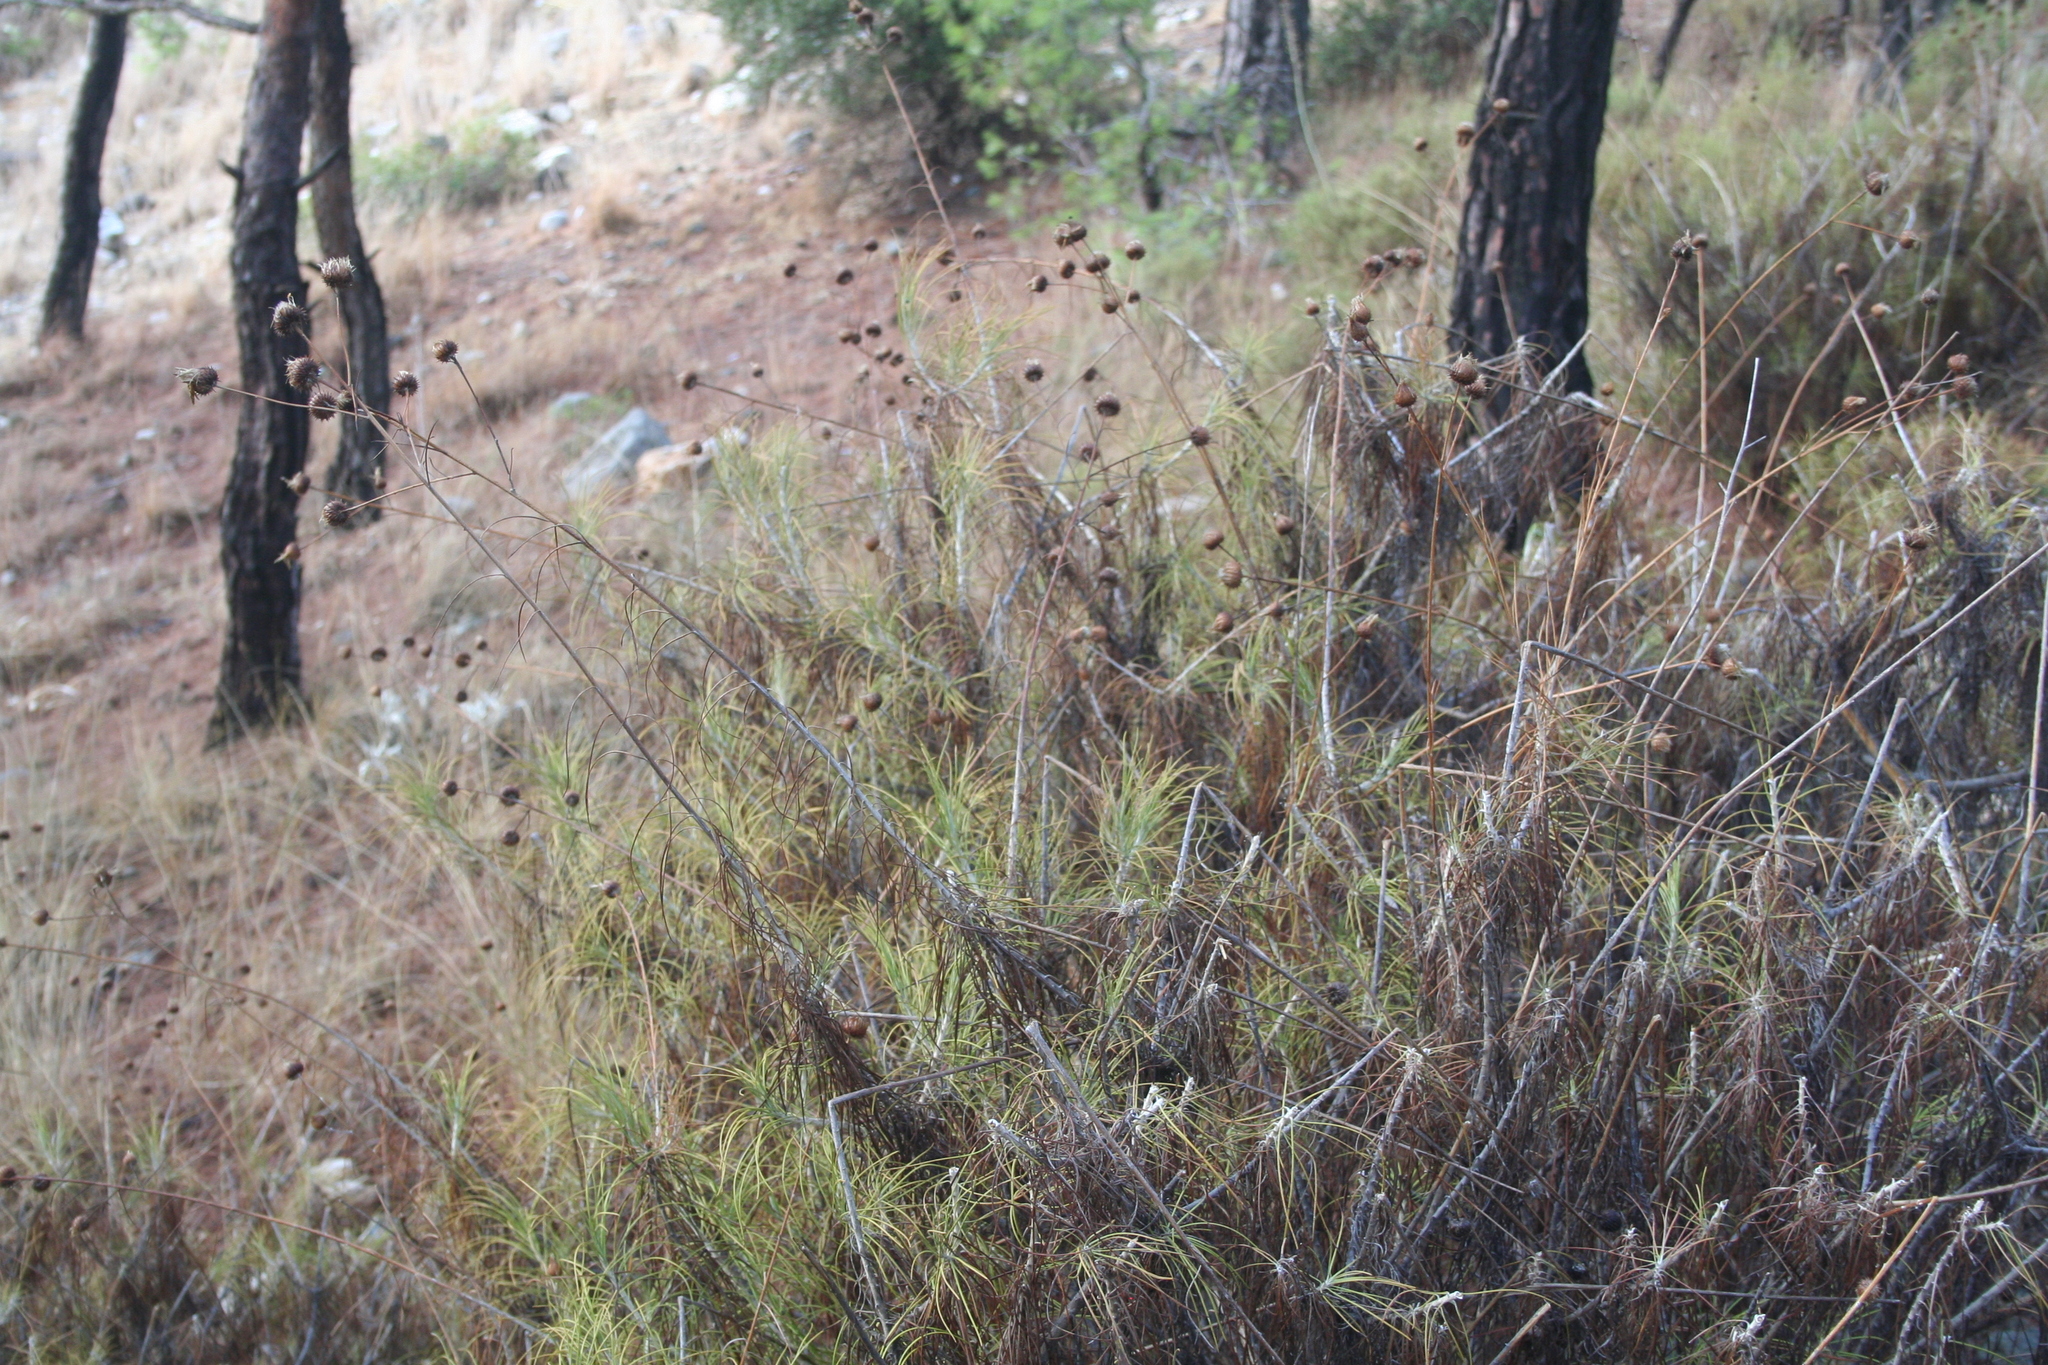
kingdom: Plantae
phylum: Tracheophyta
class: Magnoliopsida
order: Asterales
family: Asteraceae
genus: Ptilostemon
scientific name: Ptilostemon chamaepeuce
